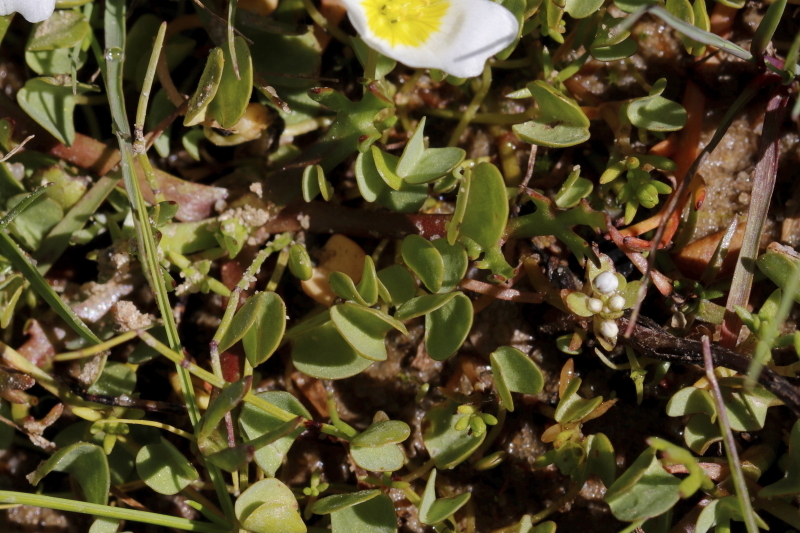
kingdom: Plantae
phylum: Tracheophyta
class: Magnoliopsida
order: Oxalidales
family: Oxalidaceae
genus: Oxalis
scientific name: Oxalis dregei
